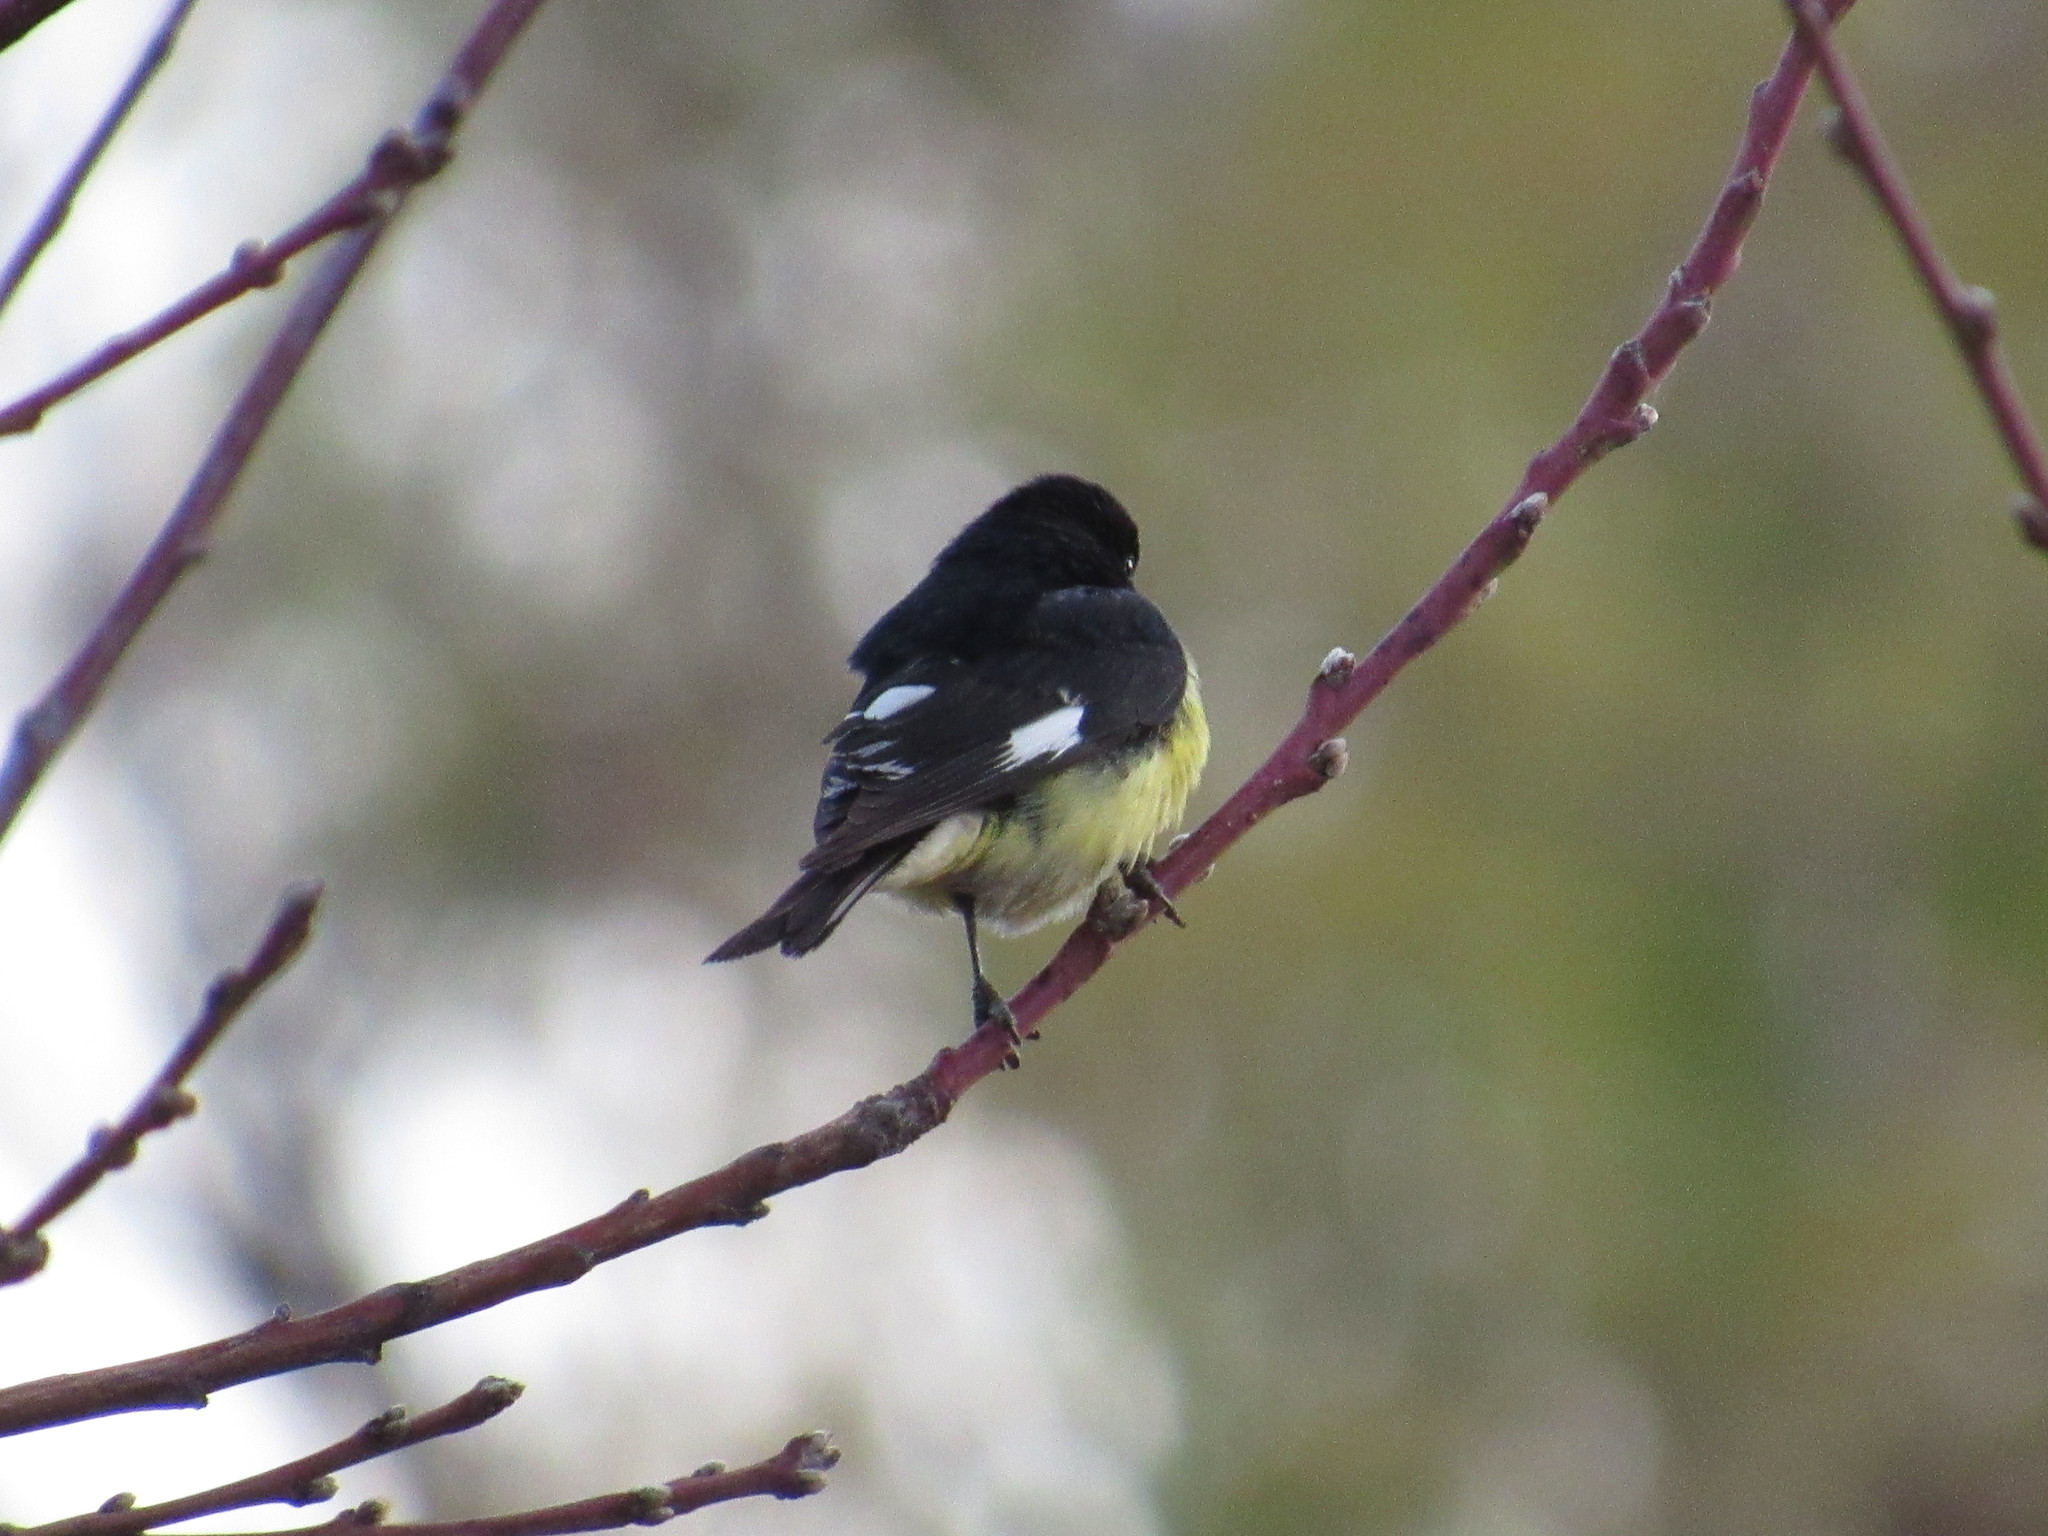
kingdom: Animalia
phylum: Chordata
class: Aves
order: Passeriformes
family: Fringillidae
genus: Spinus
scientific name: Spinus psaltria
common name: Lesser goldfinch
